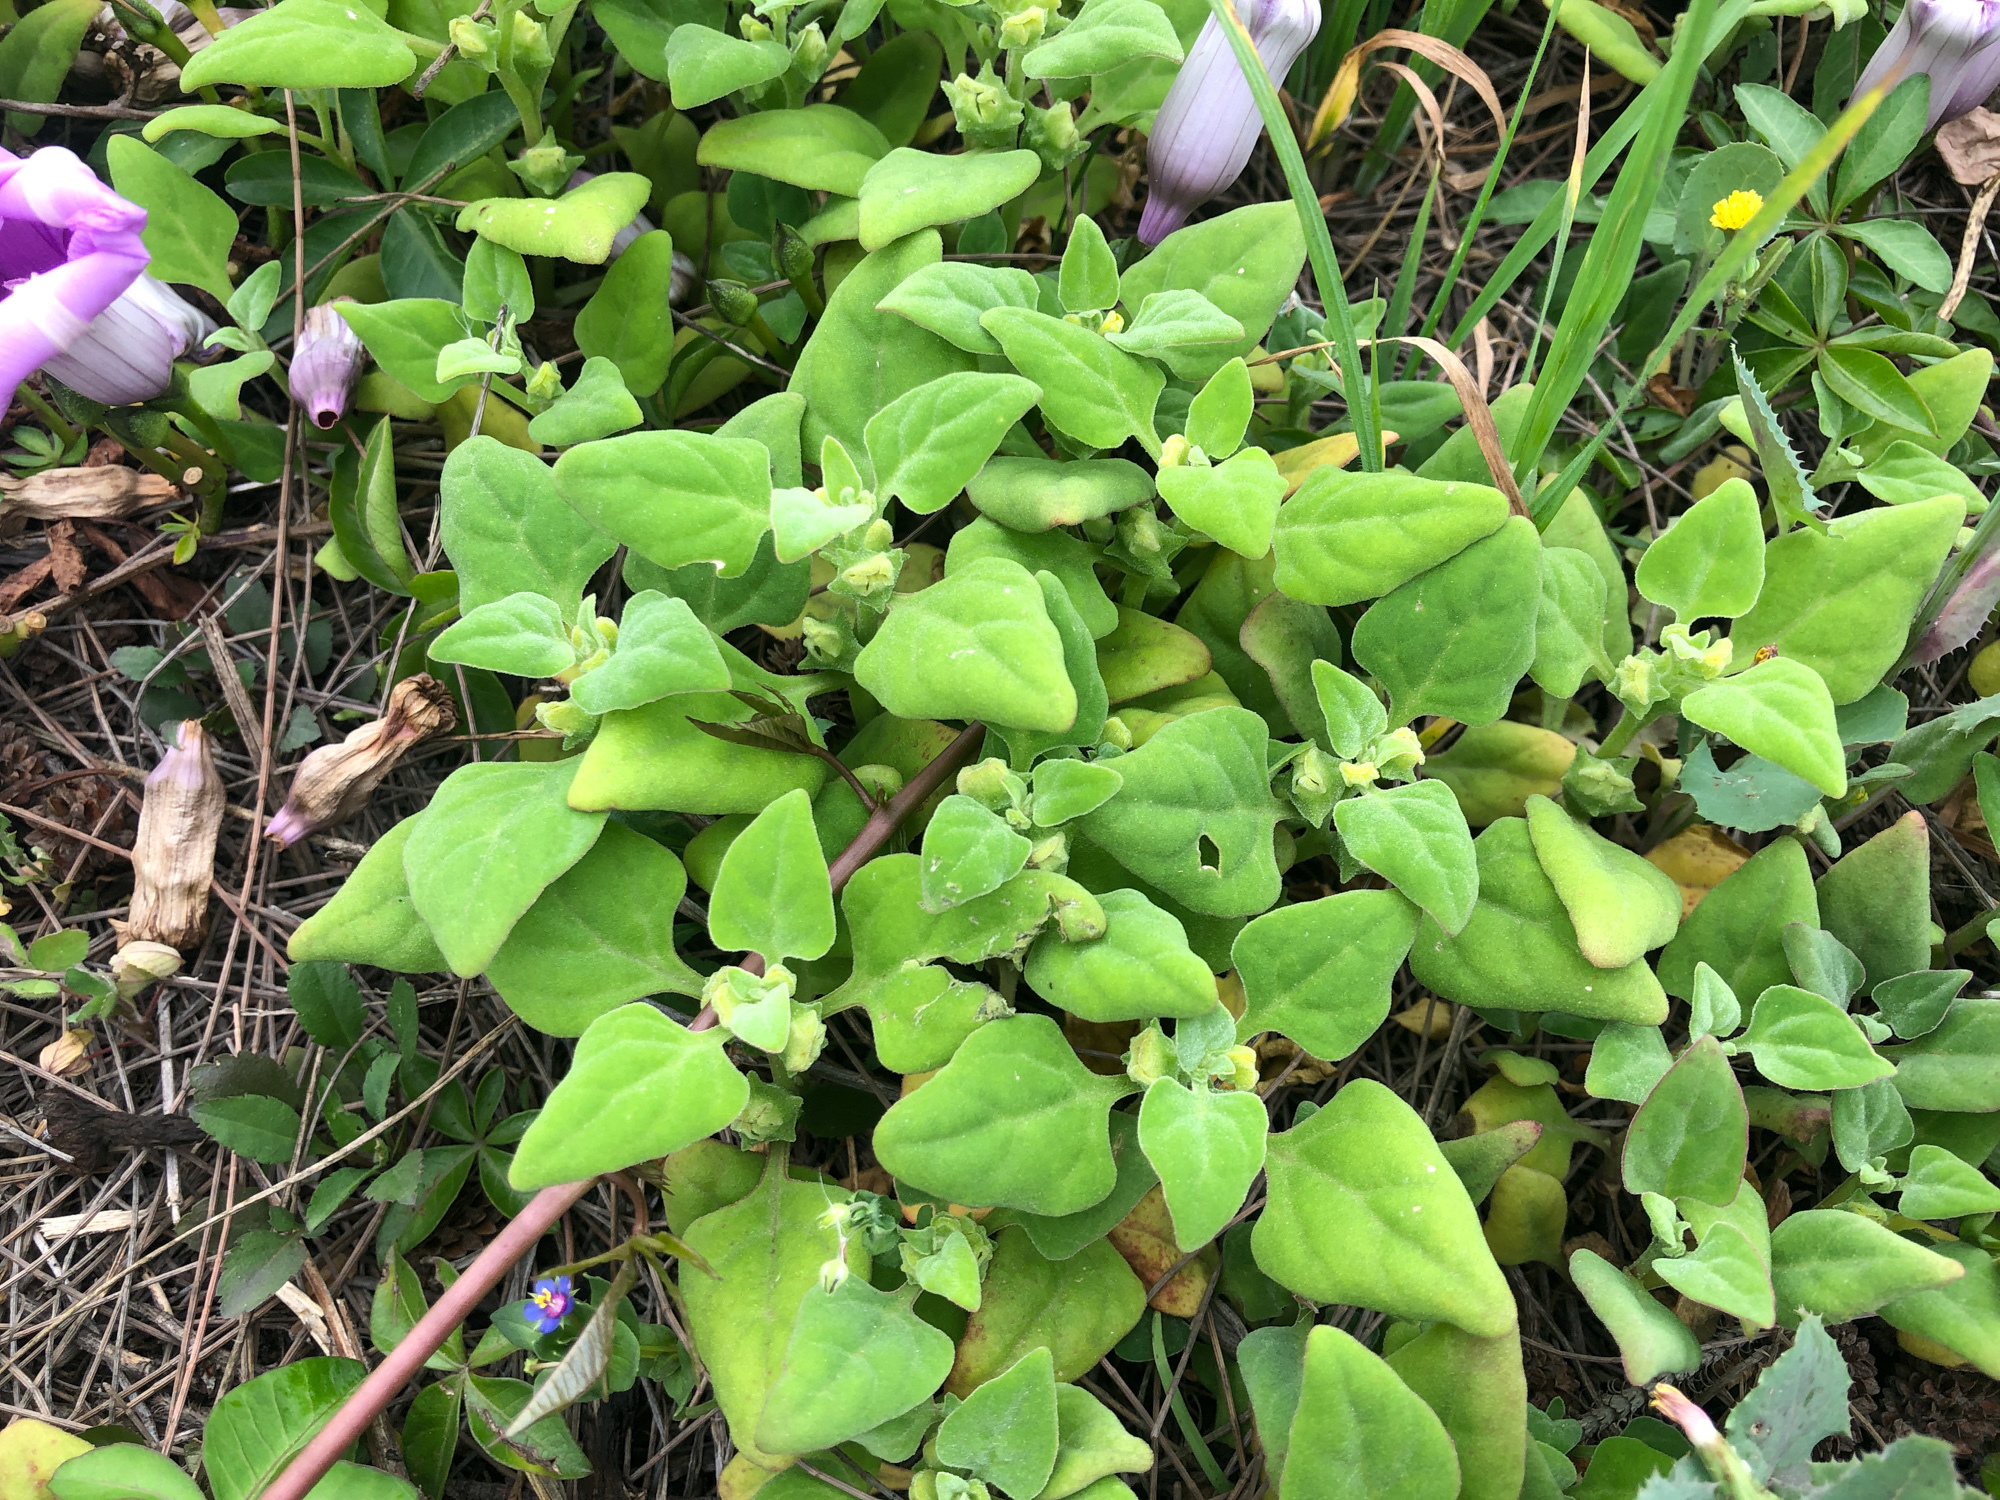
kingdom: Plantae
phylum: Tracheophyta
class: Magnoliopsida
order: Caryophyllales
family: Aizoaceae
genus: Tetragonia
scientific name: Tetragonia tetragonoides
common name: New zealand-spinach
